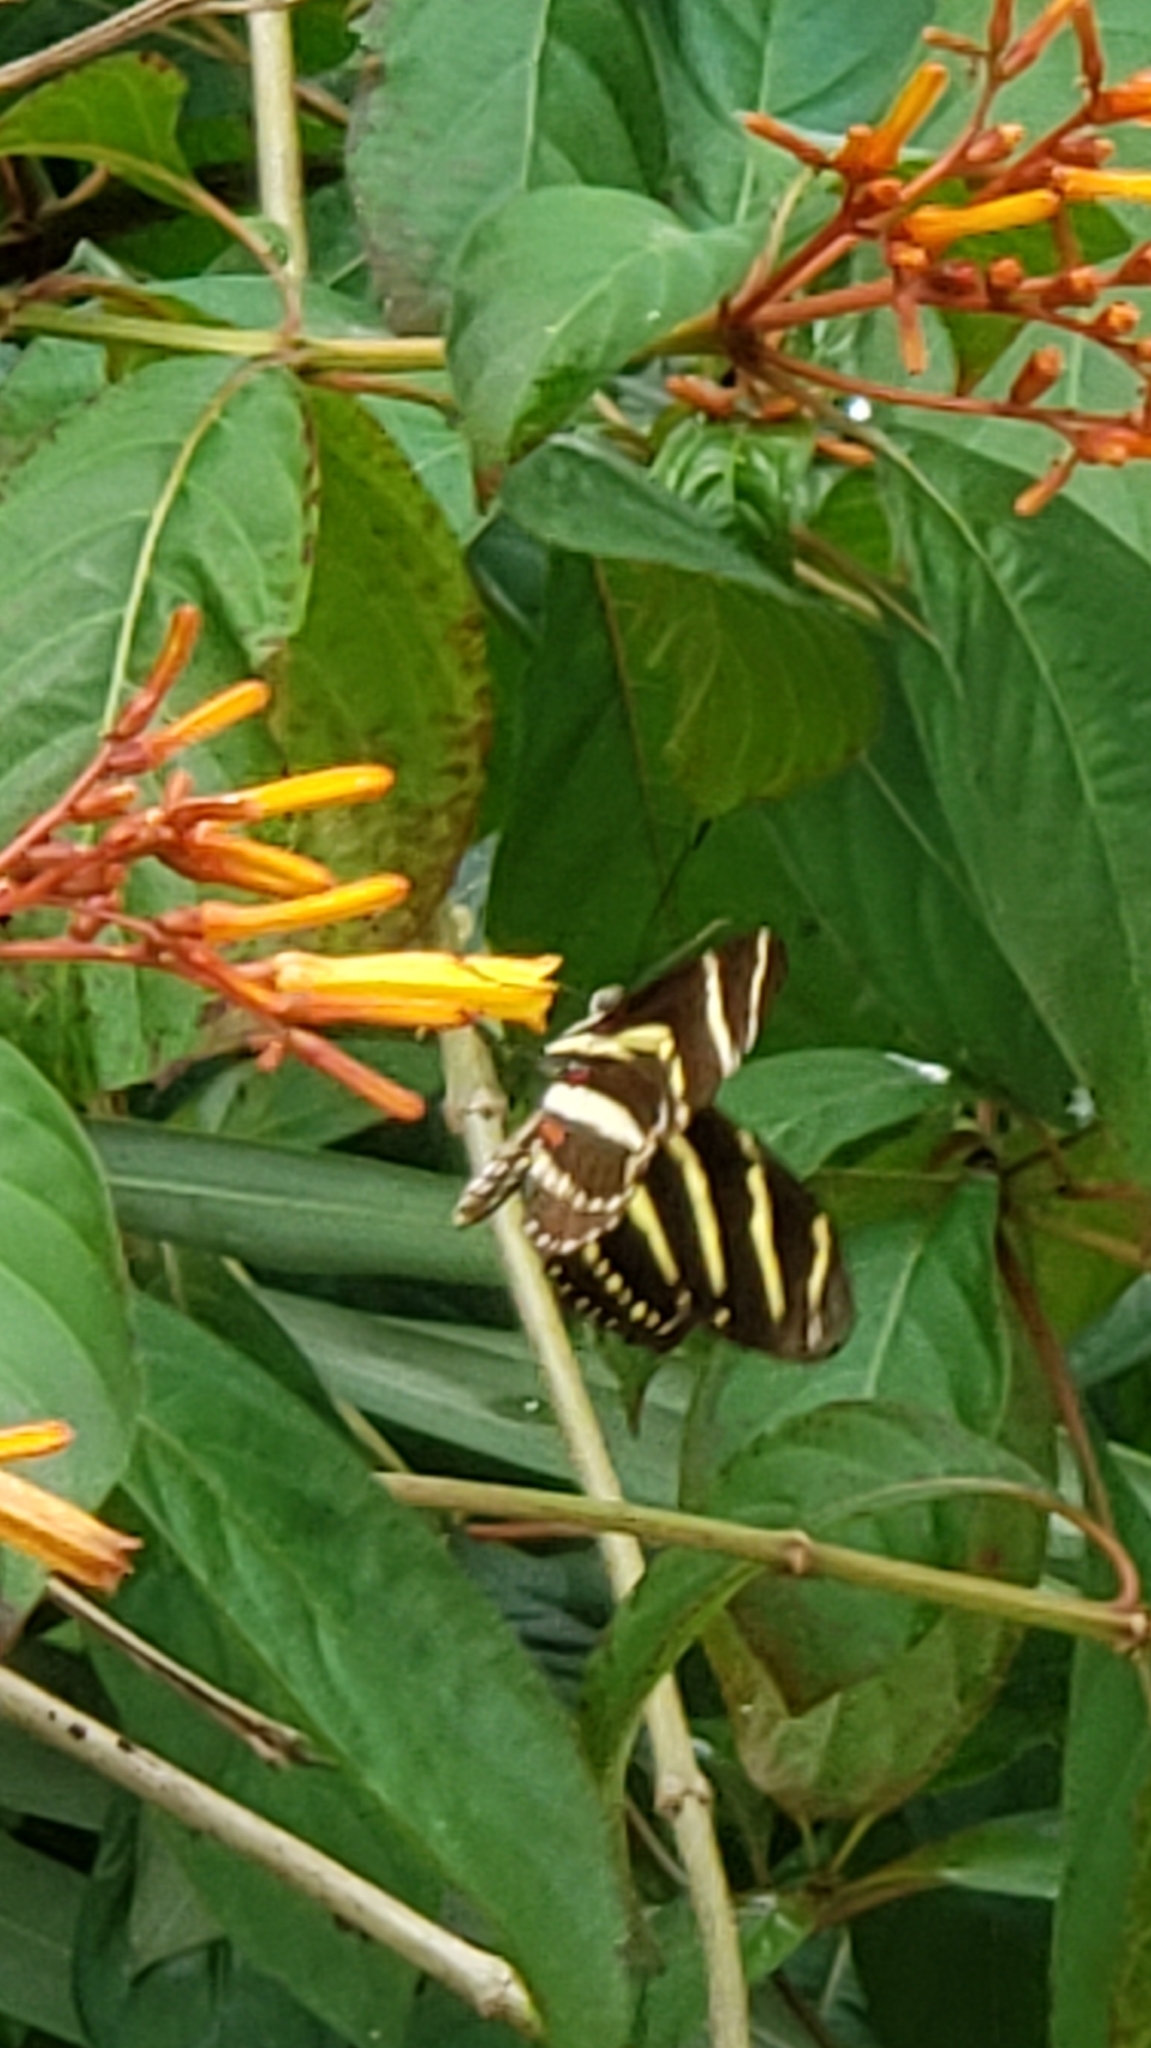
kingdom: Animalia
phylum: Arthropoda
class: Insecta
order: Lepidoptera
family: Nymphalidae
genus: Heliconius
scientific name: Heliconius charithonia
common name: Zebra long wing
